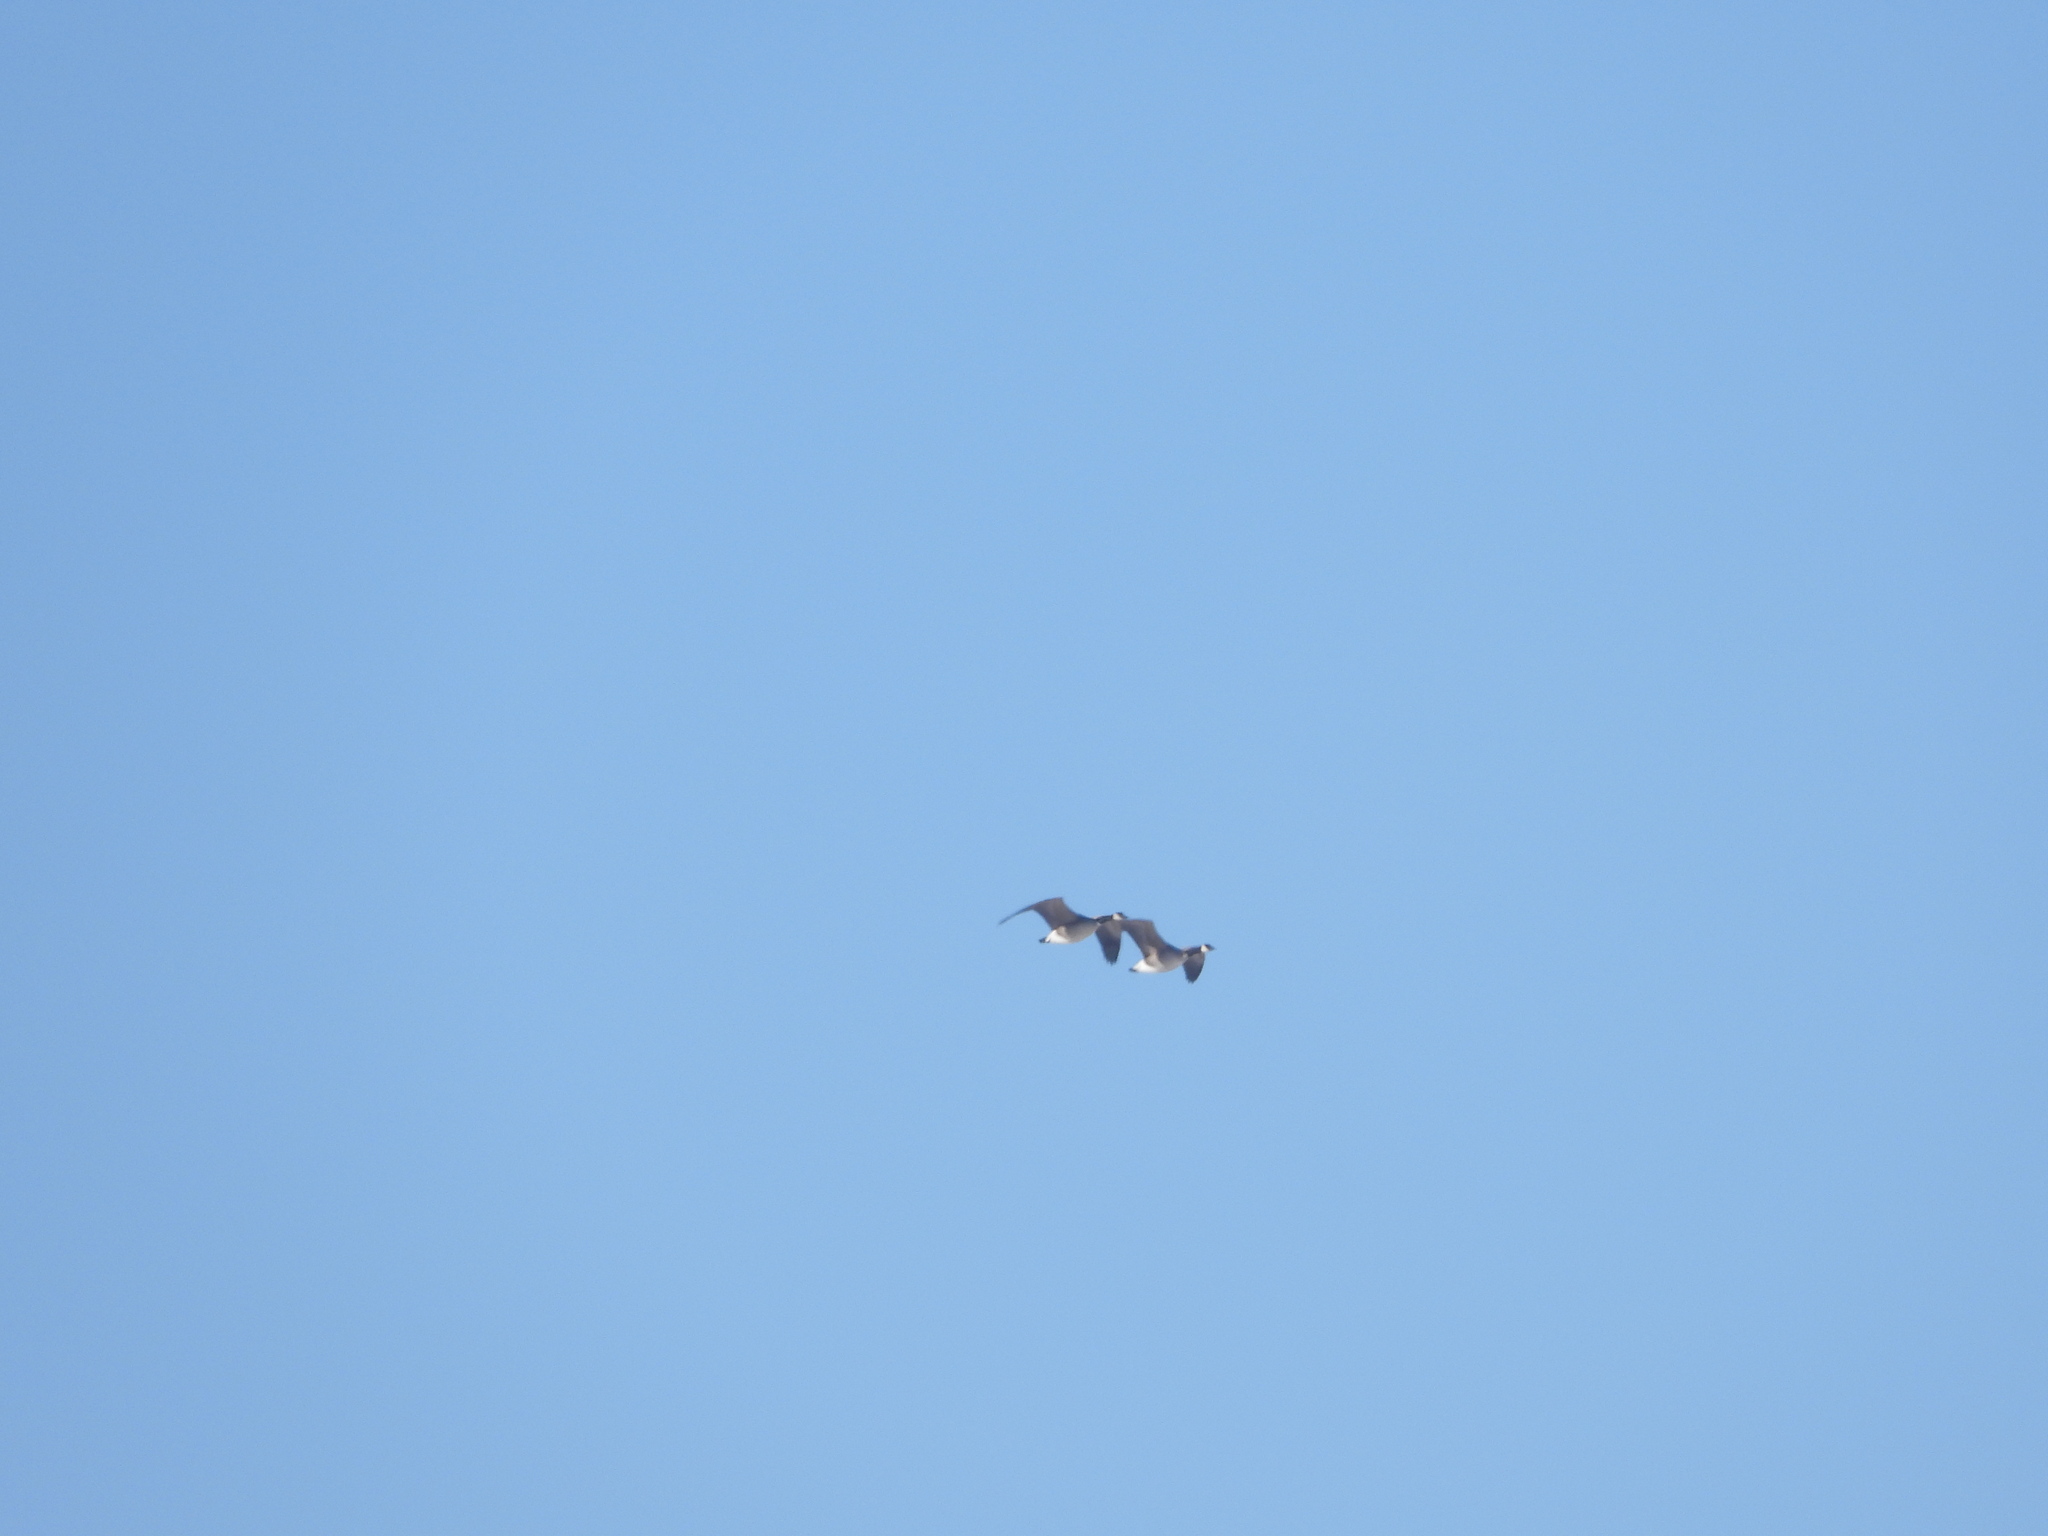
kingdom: Animalia
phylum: Chordata
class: Aves
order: Anseriformes
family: Anatidae
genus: Branta
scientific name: Branta hutchinsii
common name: Cackling goose
